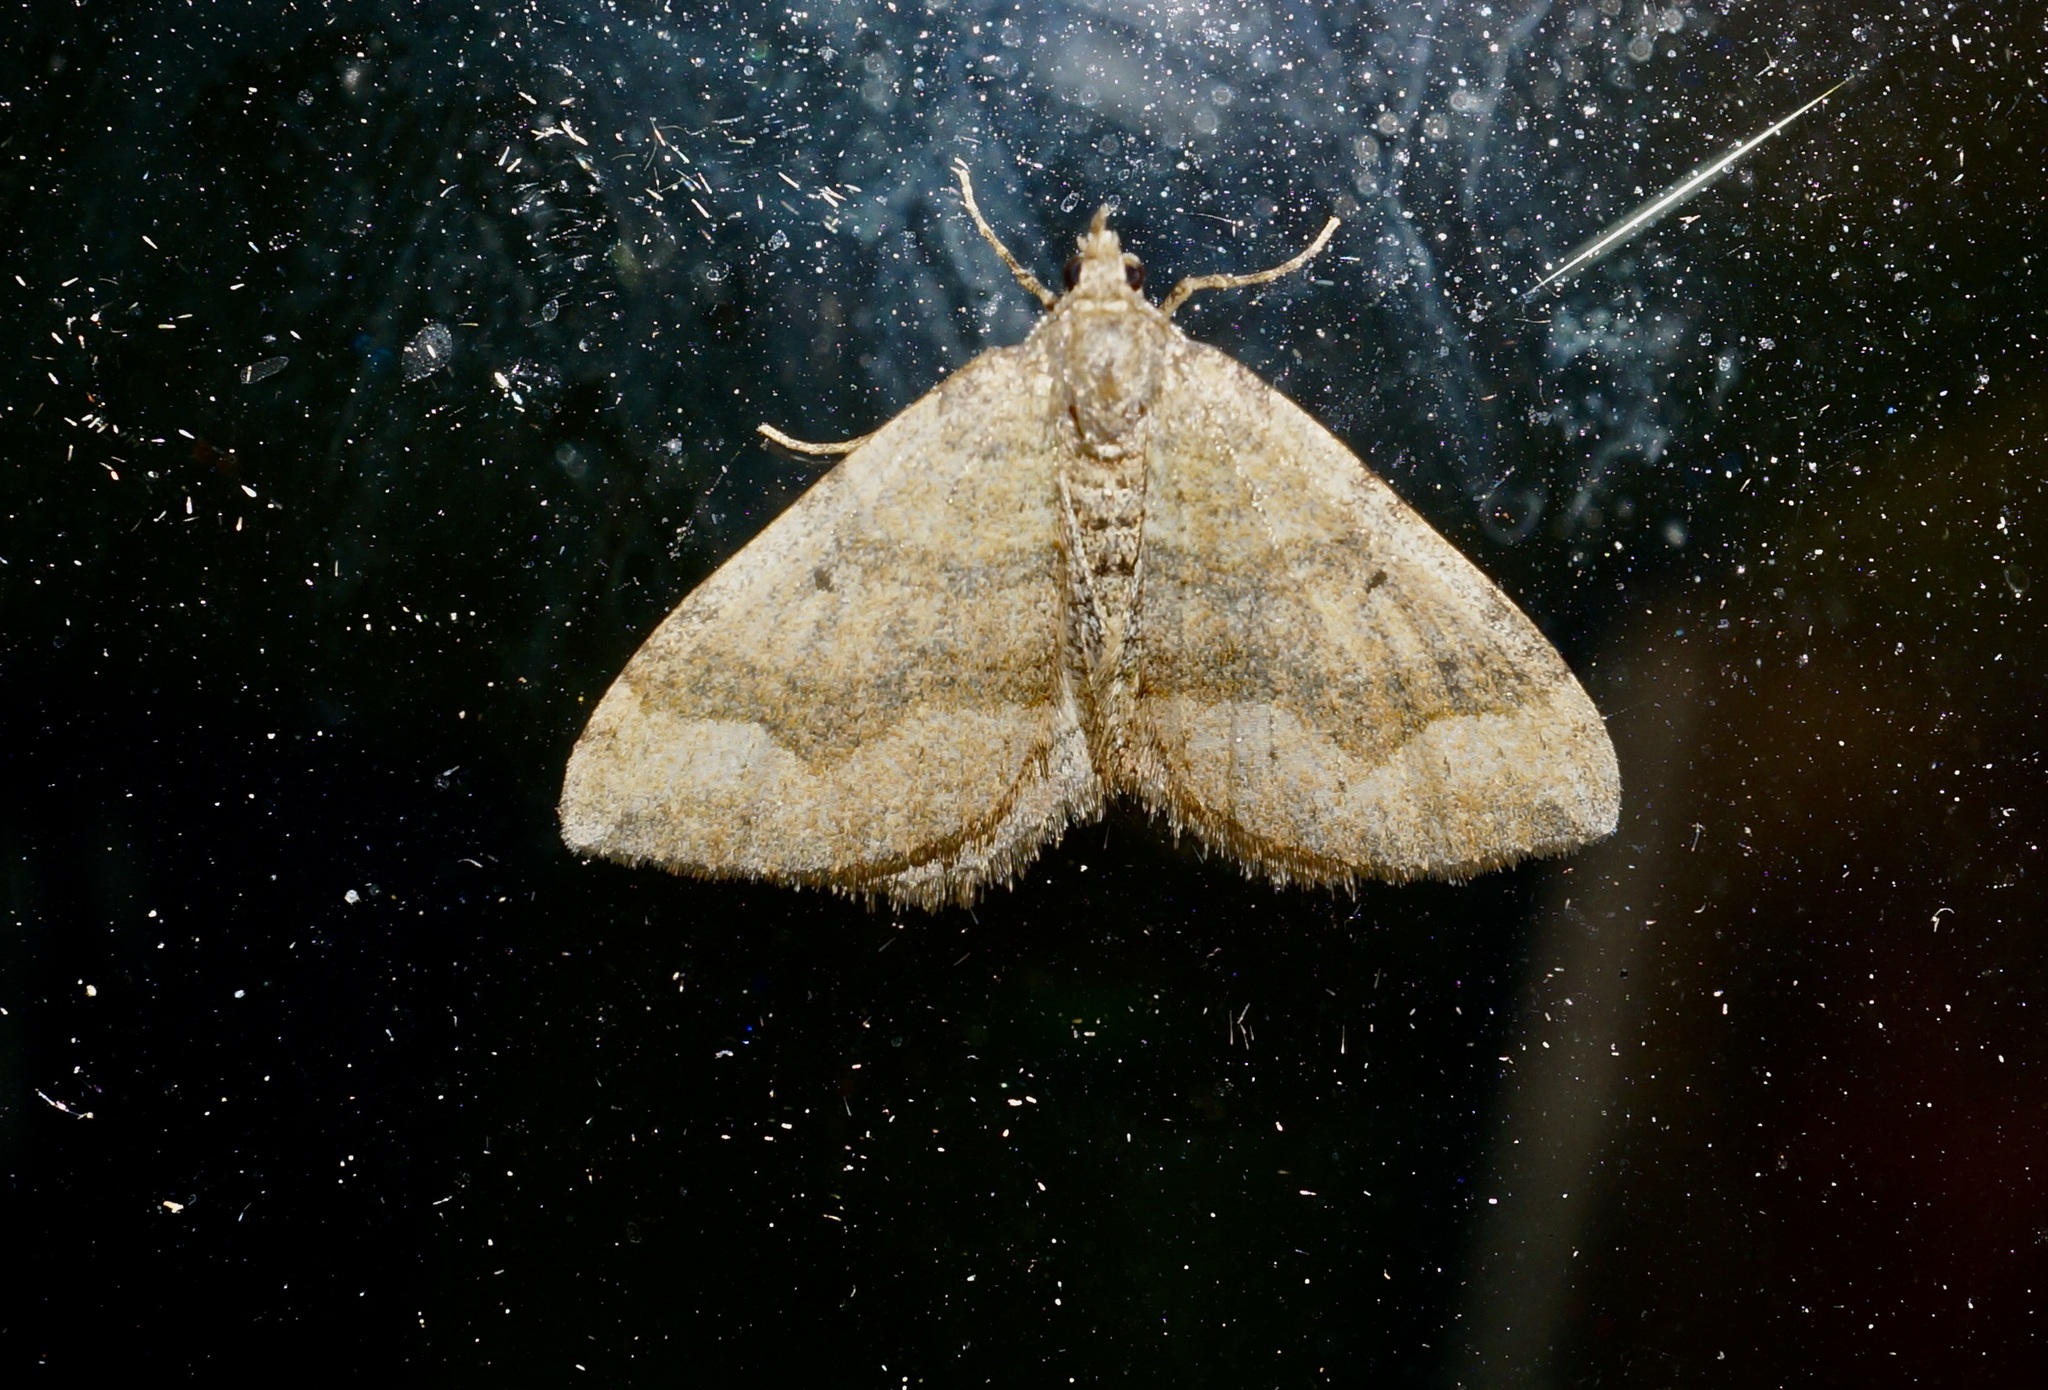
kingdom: Animalia
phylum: Arthropoda
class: Insecta
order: Lepidoptera
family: Geometridae
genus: Epyaxa
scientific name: Epyaxa rosearia
